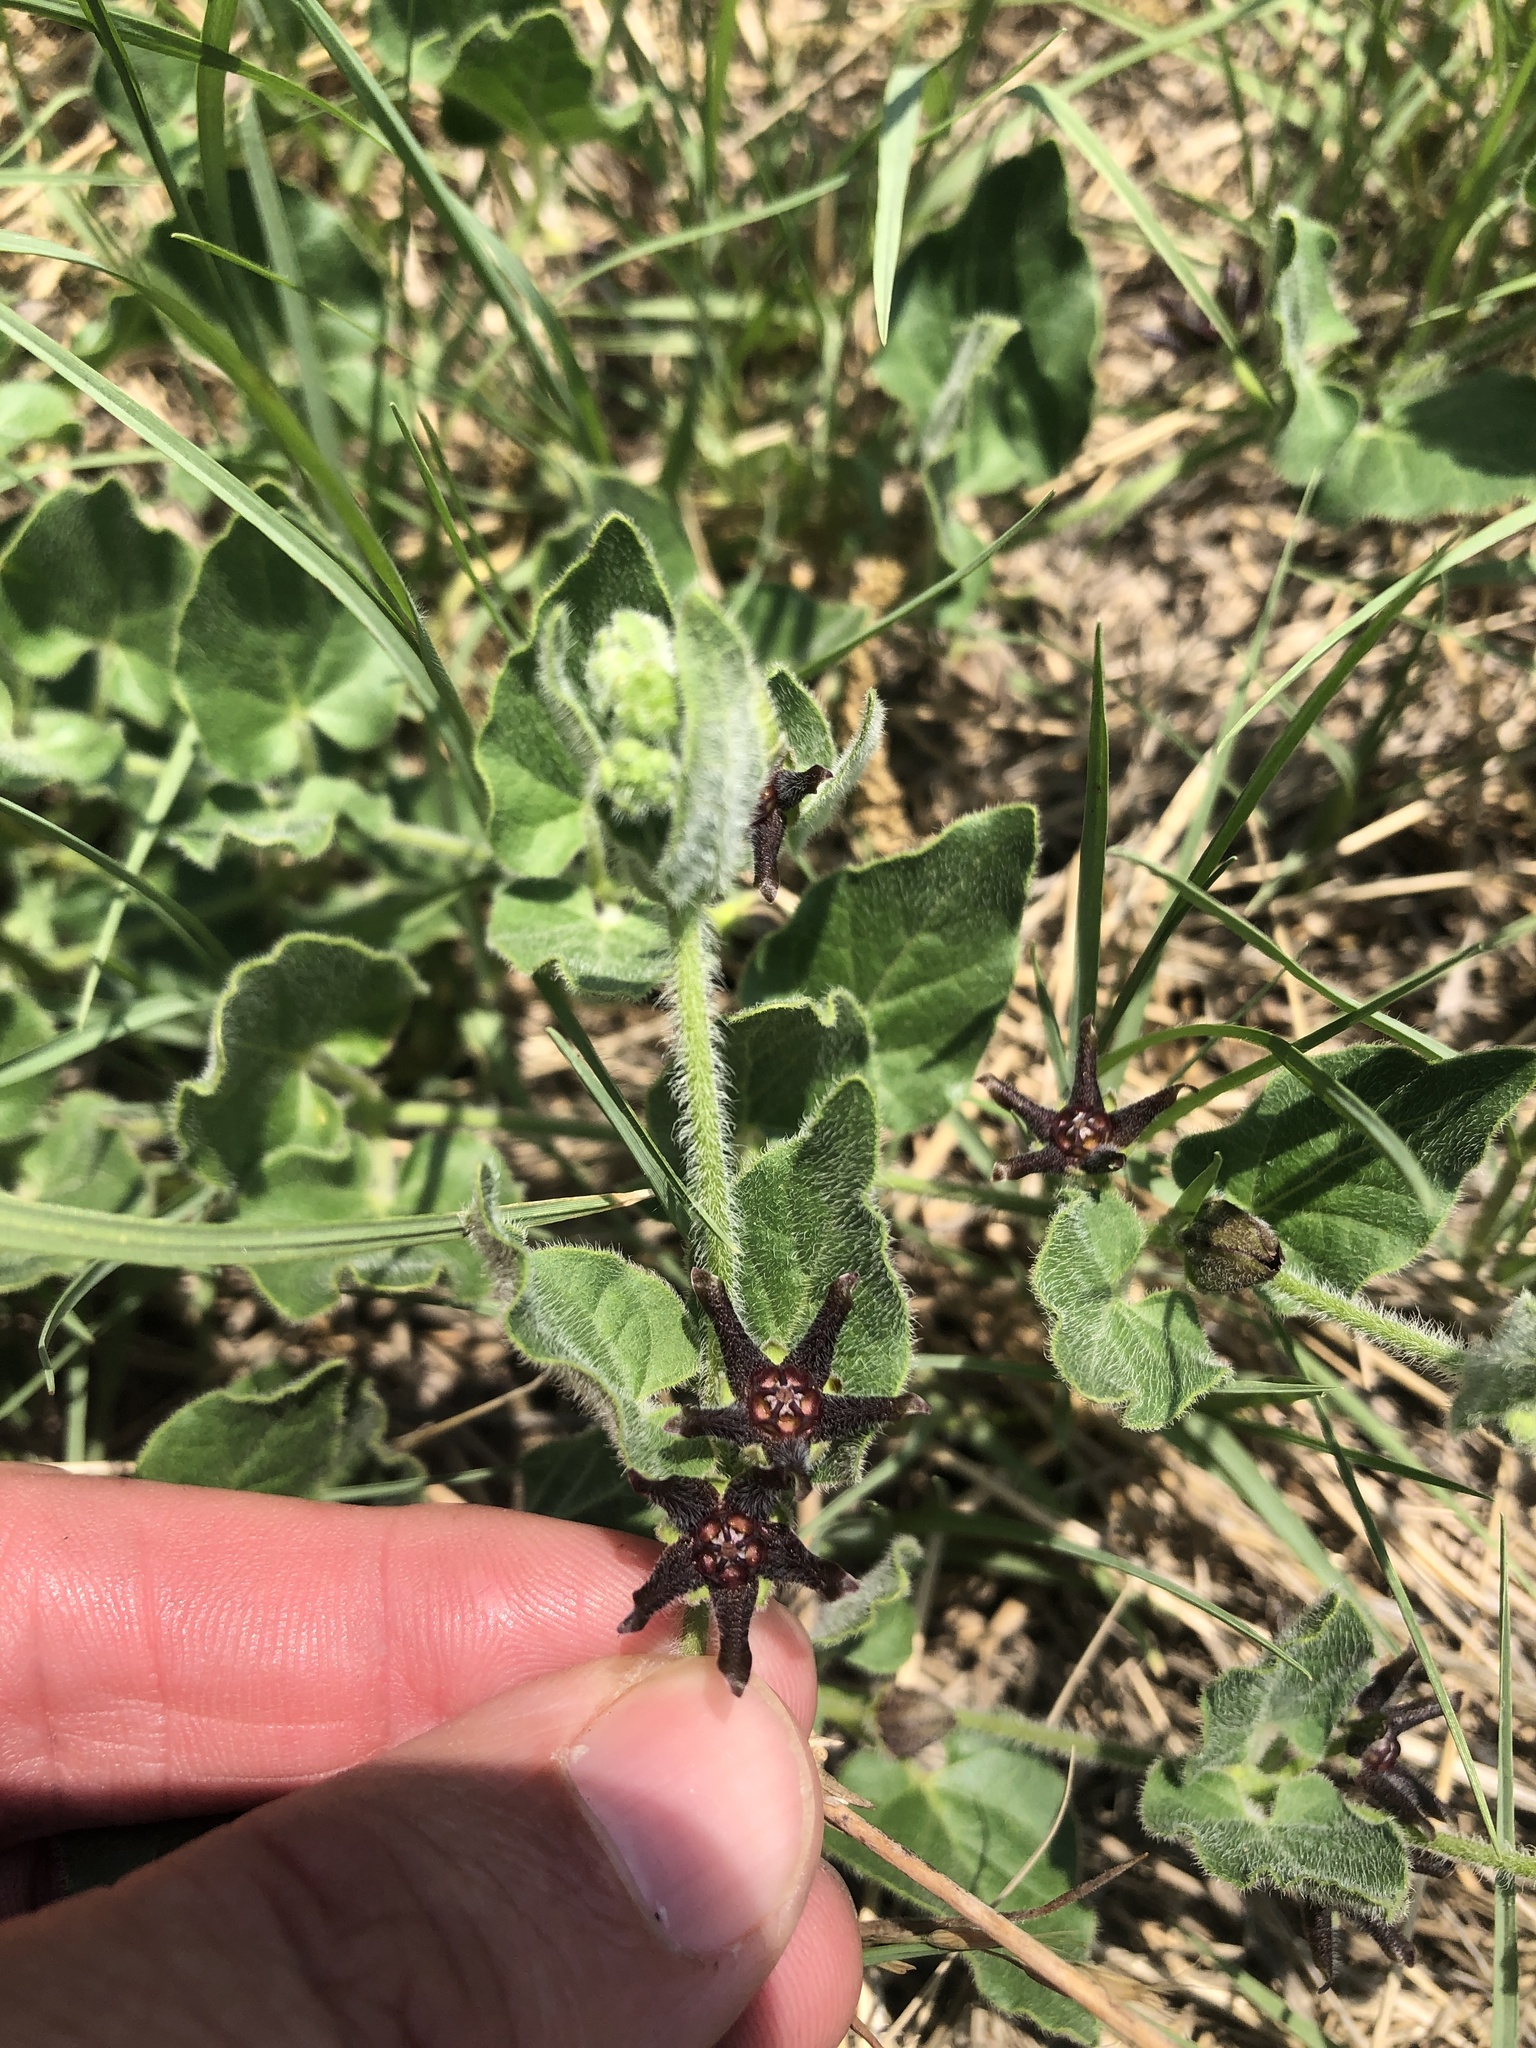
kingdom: Plantae
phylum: Tracheophyta
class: Magnoliopsida
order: Gentianales
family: Apocynaceae
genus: Chthamalia
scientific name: Chthamalia biflora
